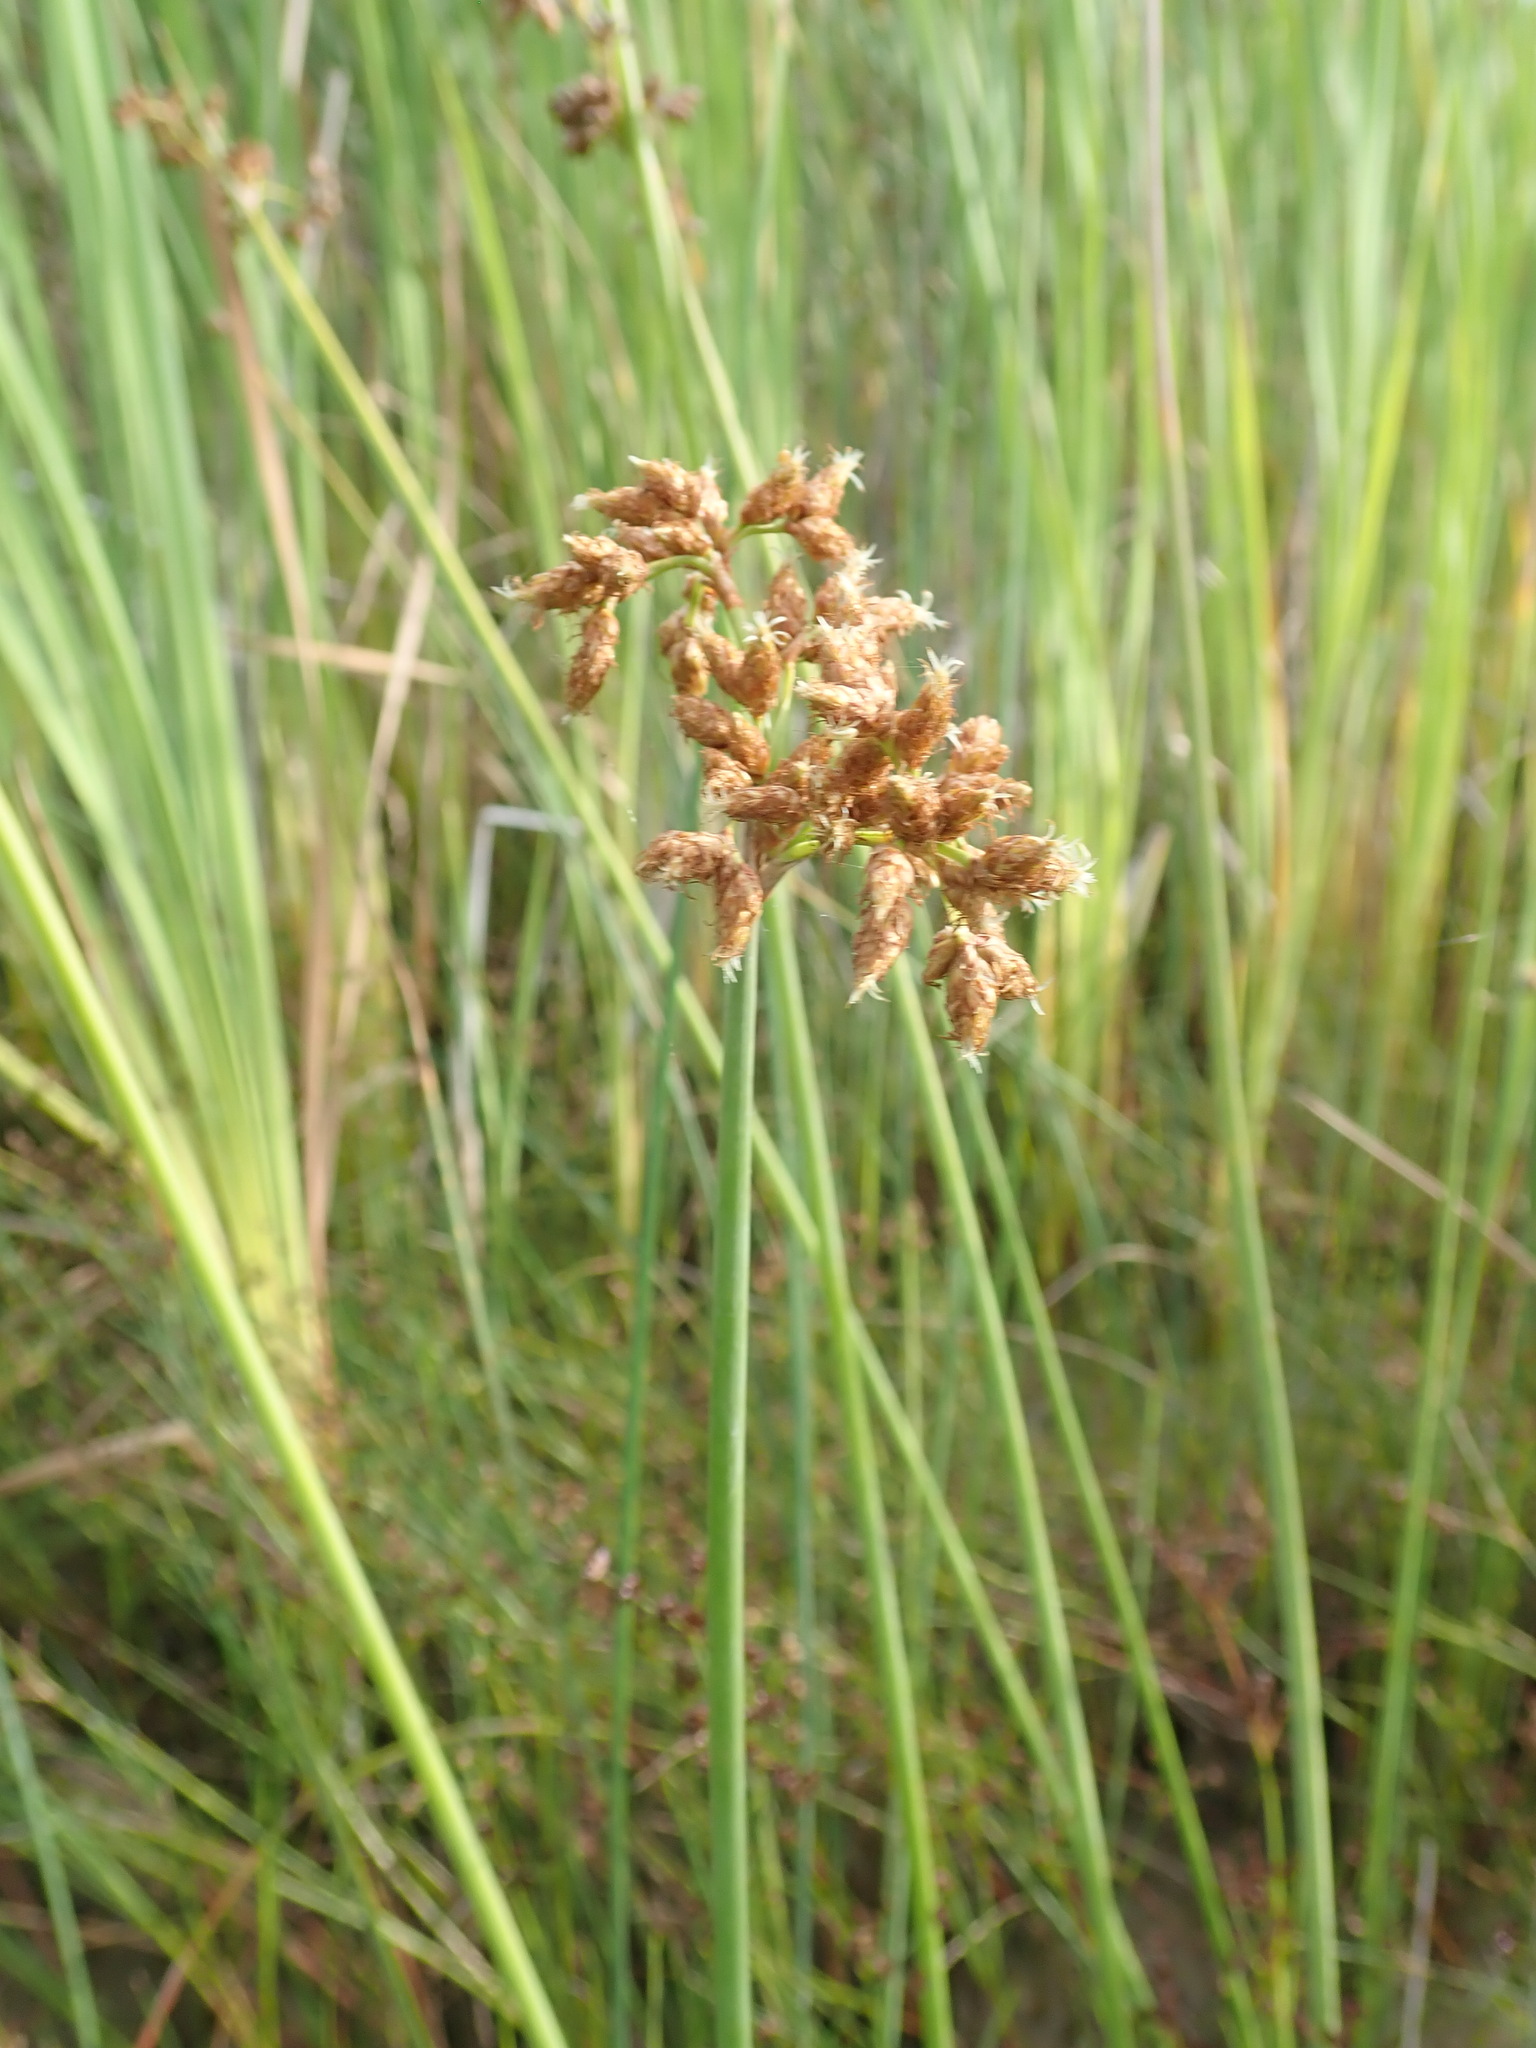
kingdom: Plantae
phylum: Tracheophyta
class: Liliopsida
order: Poales
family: Cyperaceae
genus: Schoenoplectus
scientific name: Schoenoplectus tabernaemontani
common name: Grey club-rush
